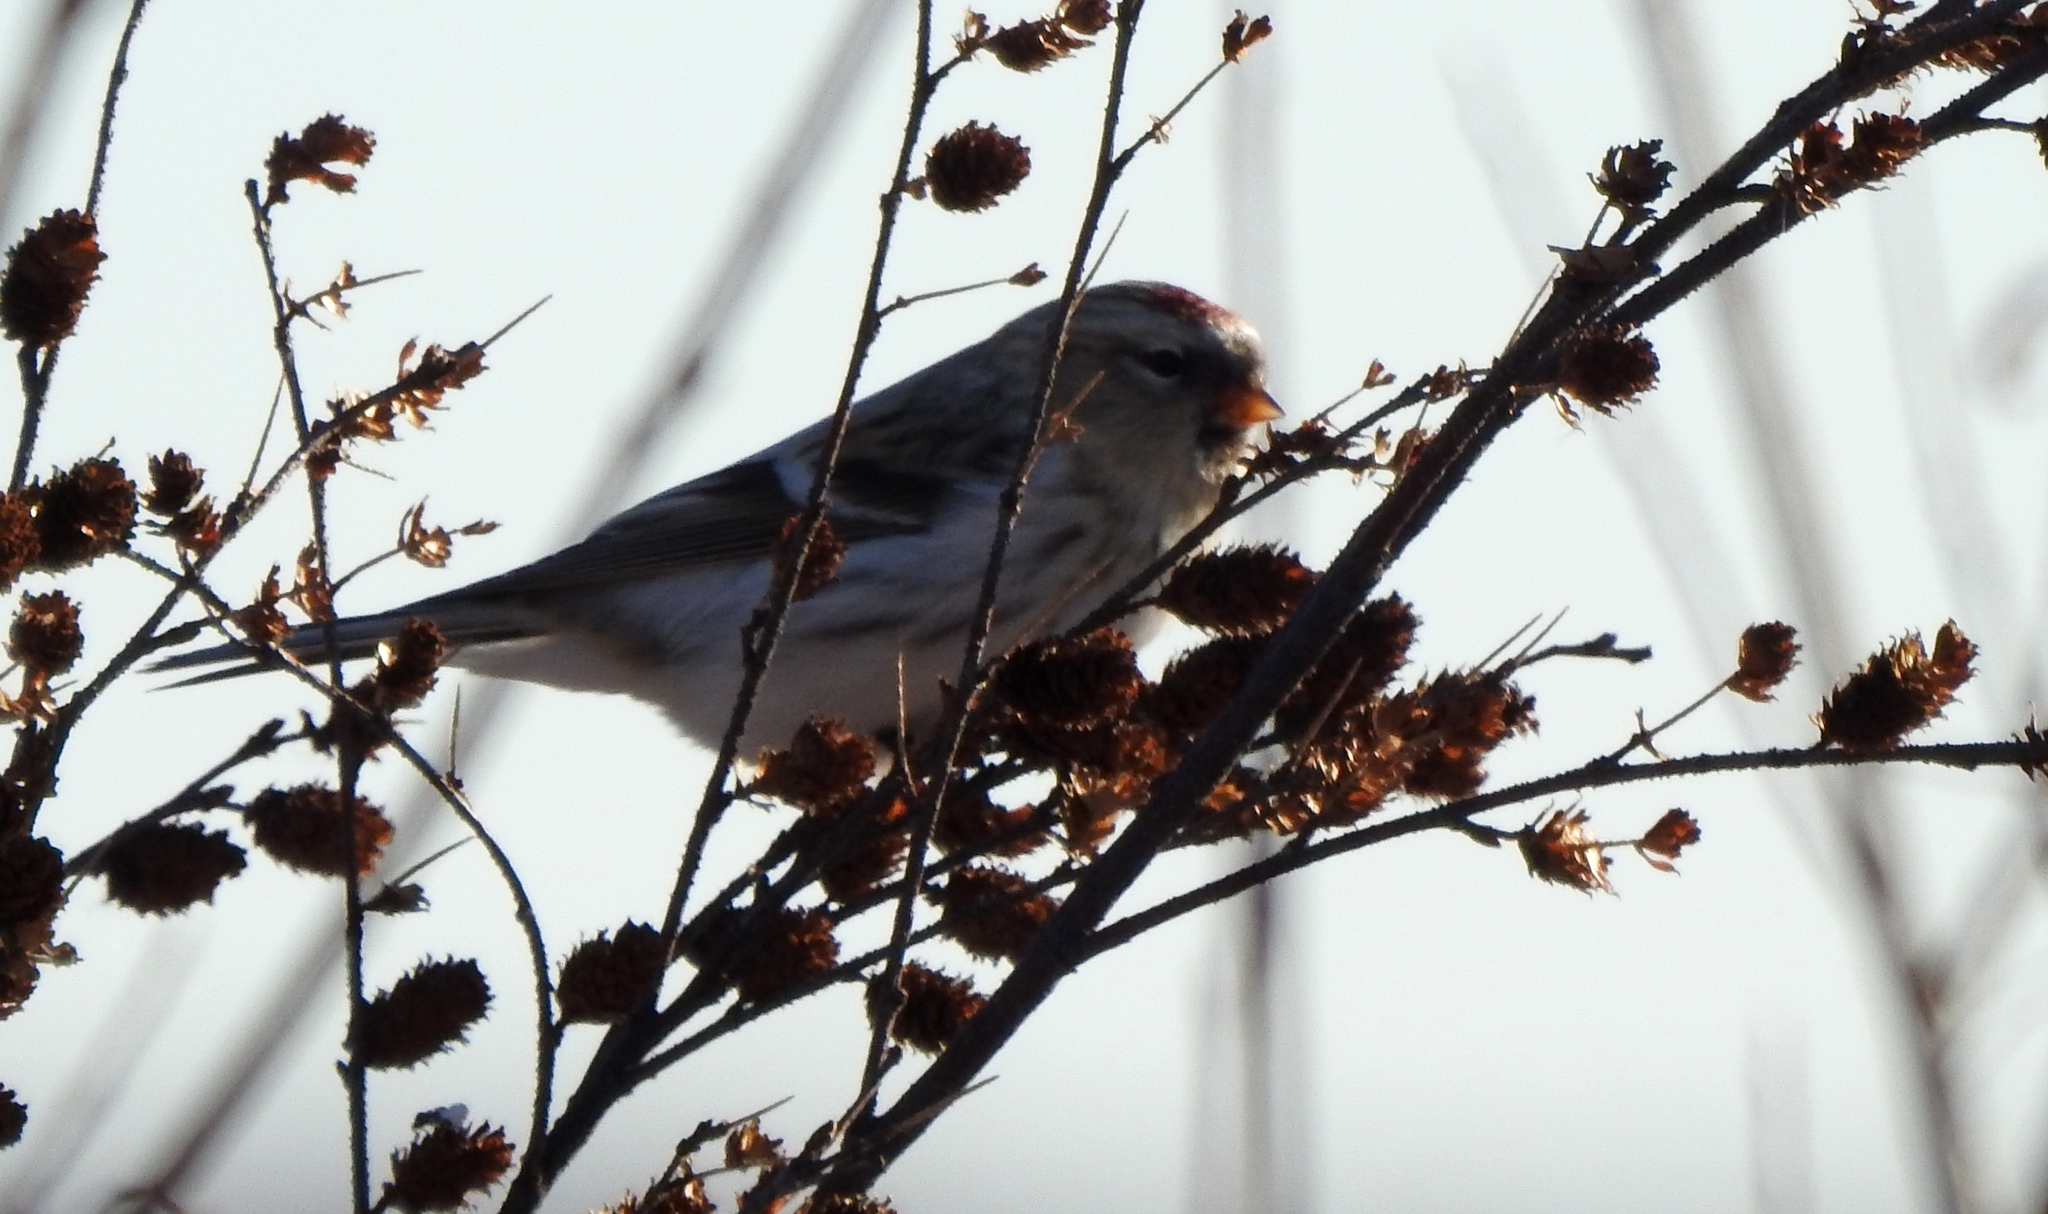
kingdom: Animalia
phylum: Chordata
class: Aves
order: Passeriformes
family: Fringillidae
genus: Acanthis
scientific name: Acanthis flammea
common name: Common redpoll
